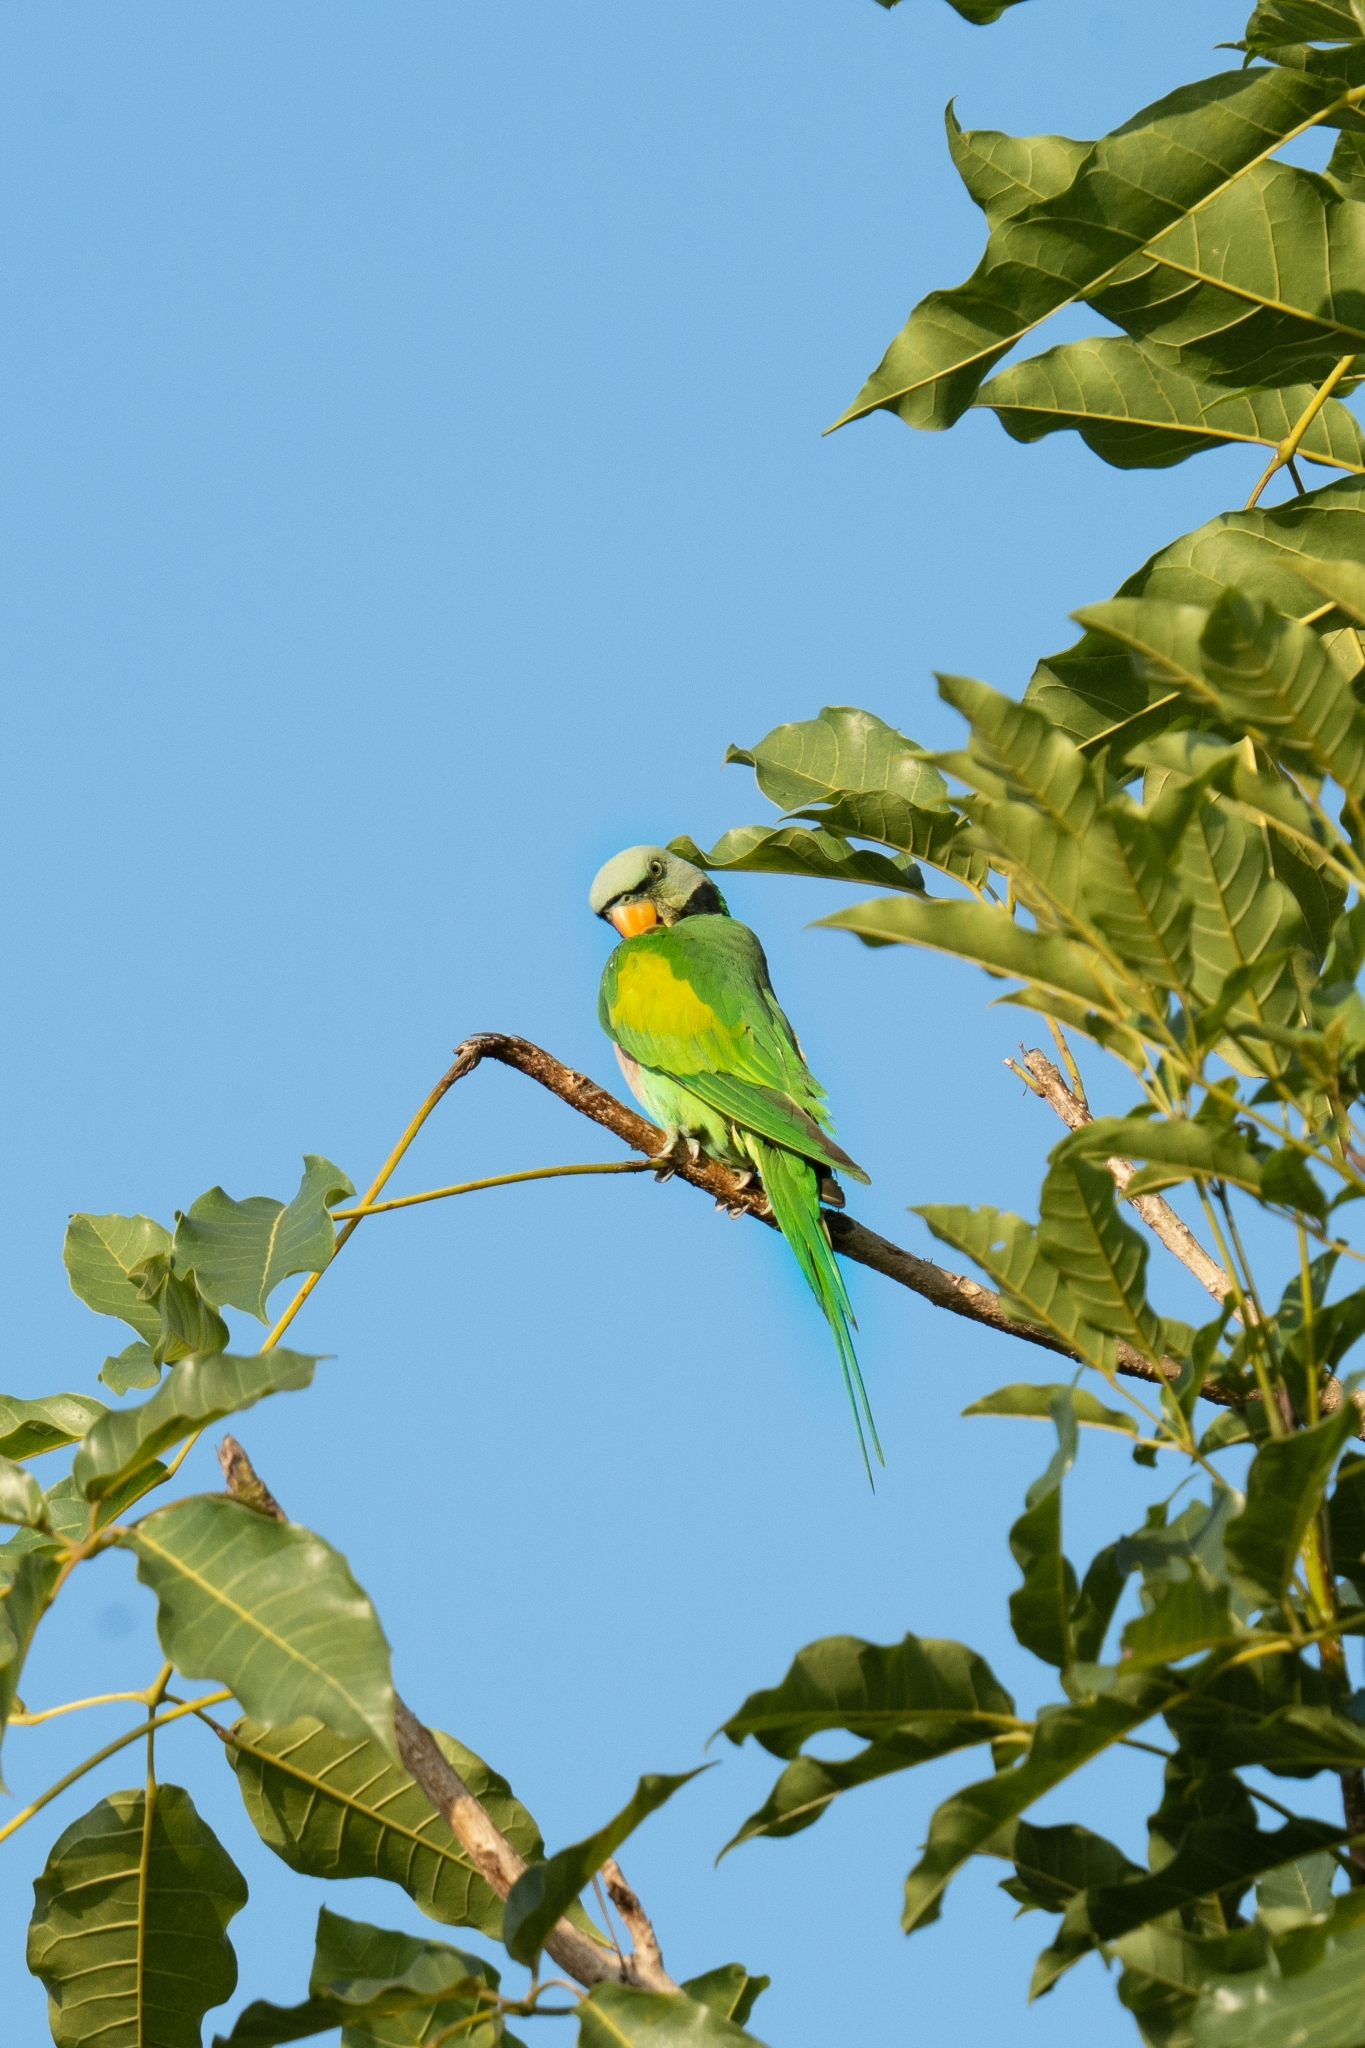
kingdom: Animalia
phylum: Chordata
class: Aves
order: Psittaciformes
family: Psittacidae
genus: Psittacula
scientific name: Psittacula alexandri
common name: Red-breasted parakeet
